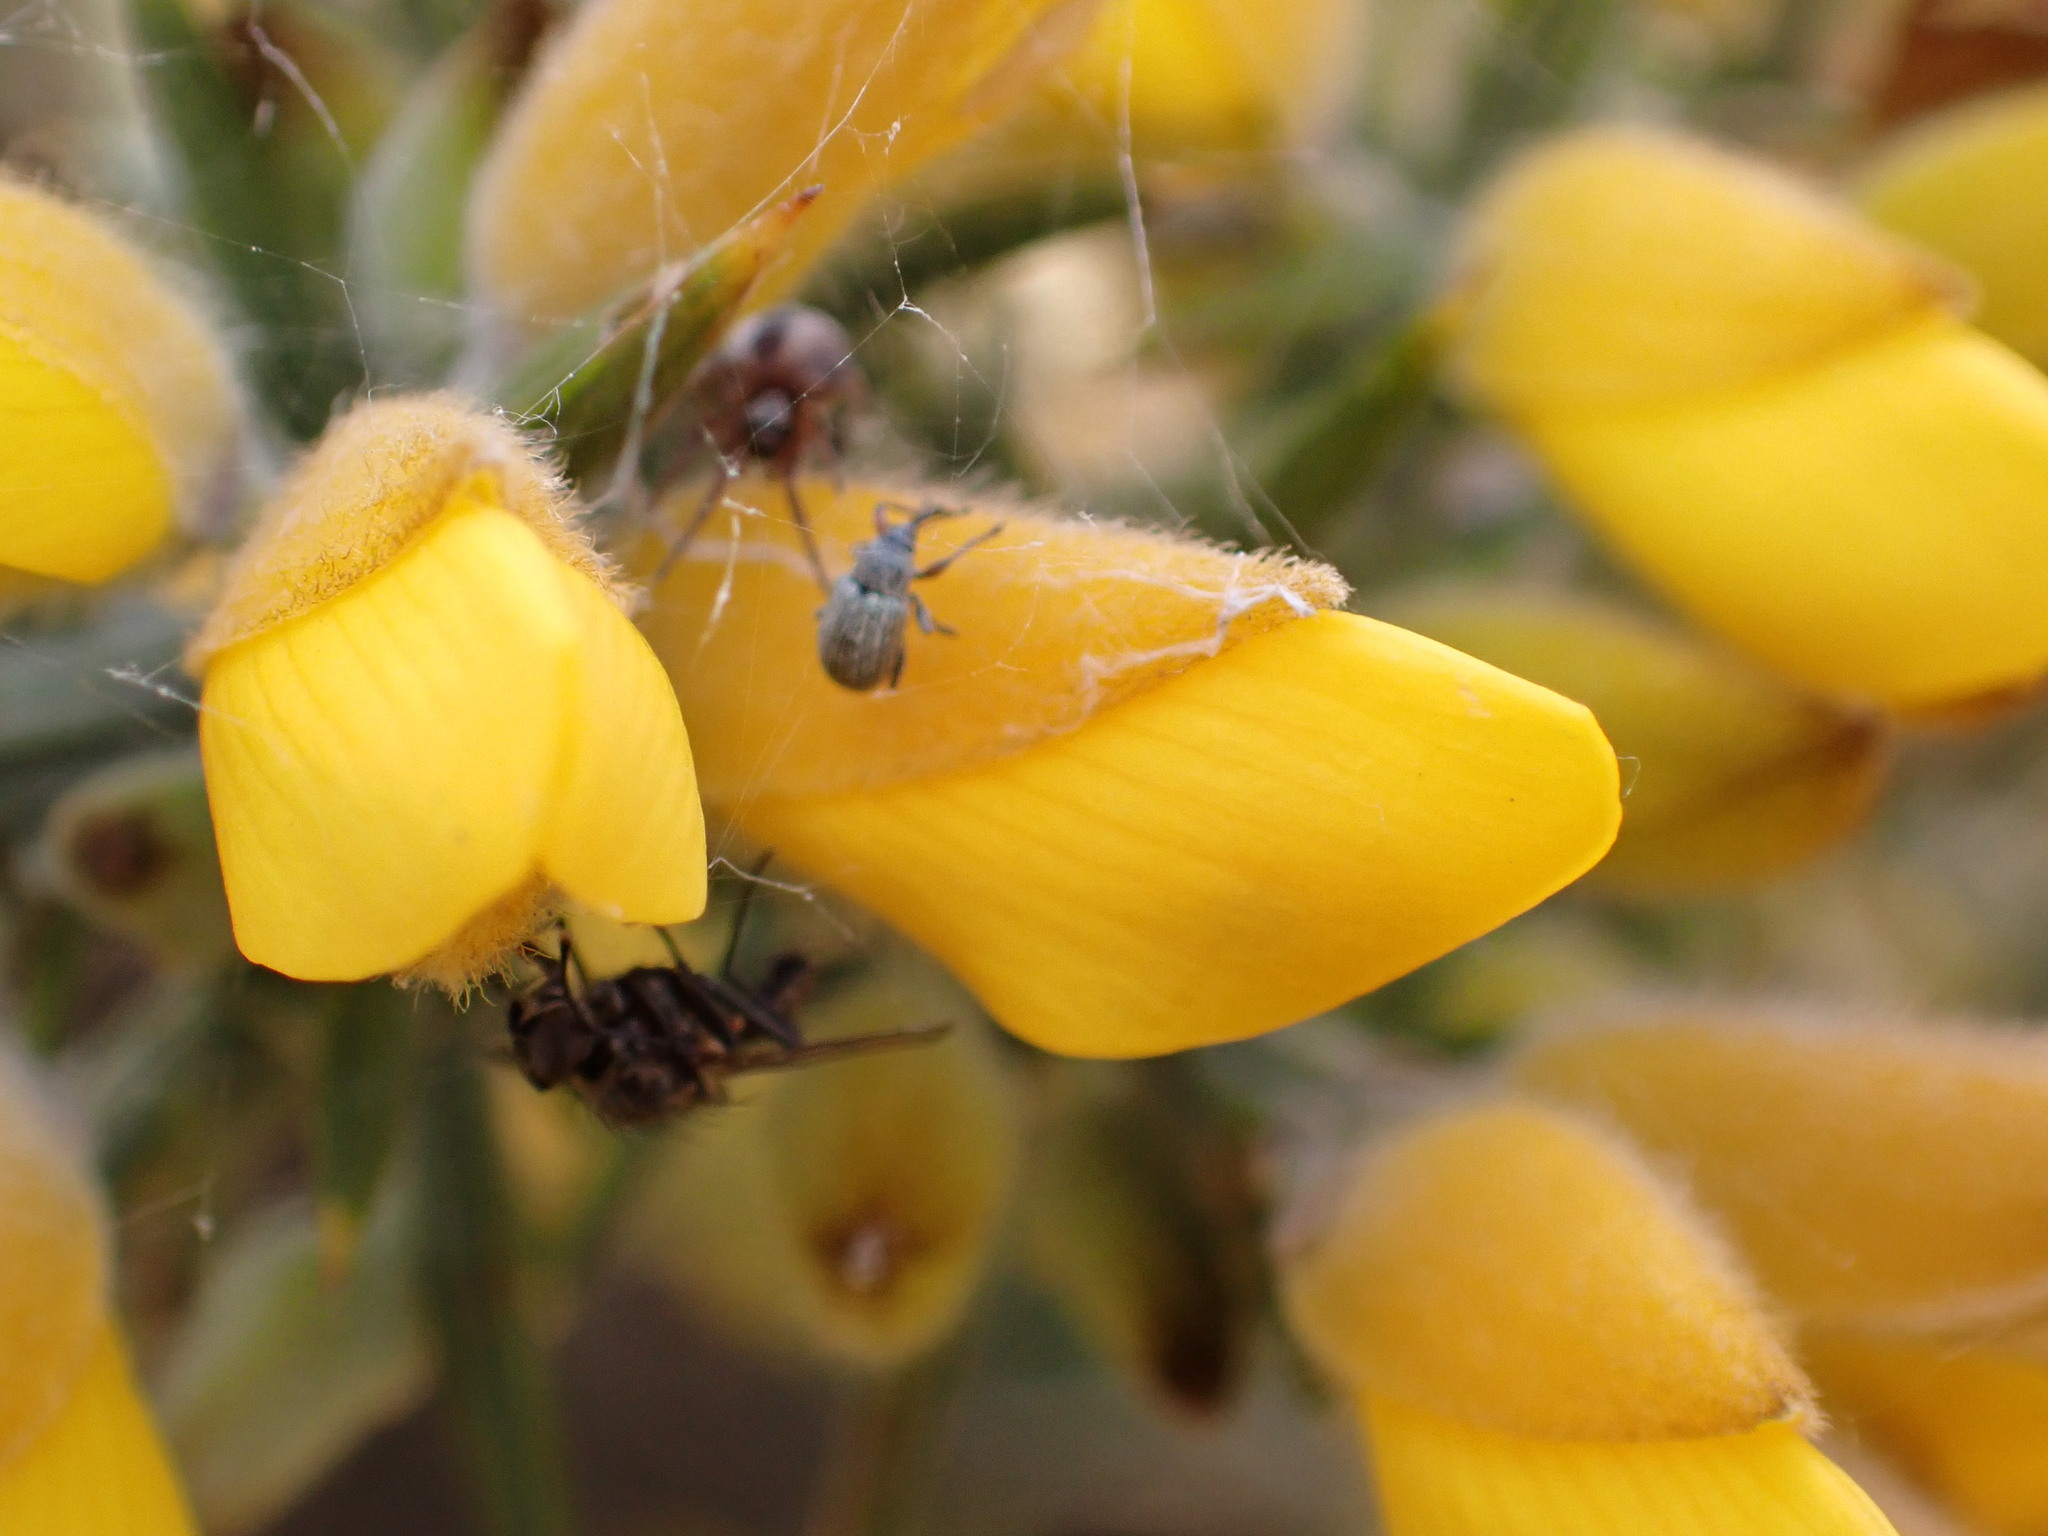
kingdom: Animalia
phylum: Arthropoda
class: Insecta
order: Coleoptera
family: Brentidae
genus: Exapion
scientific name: Exapion ulicis
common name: Gorse seed weevil
